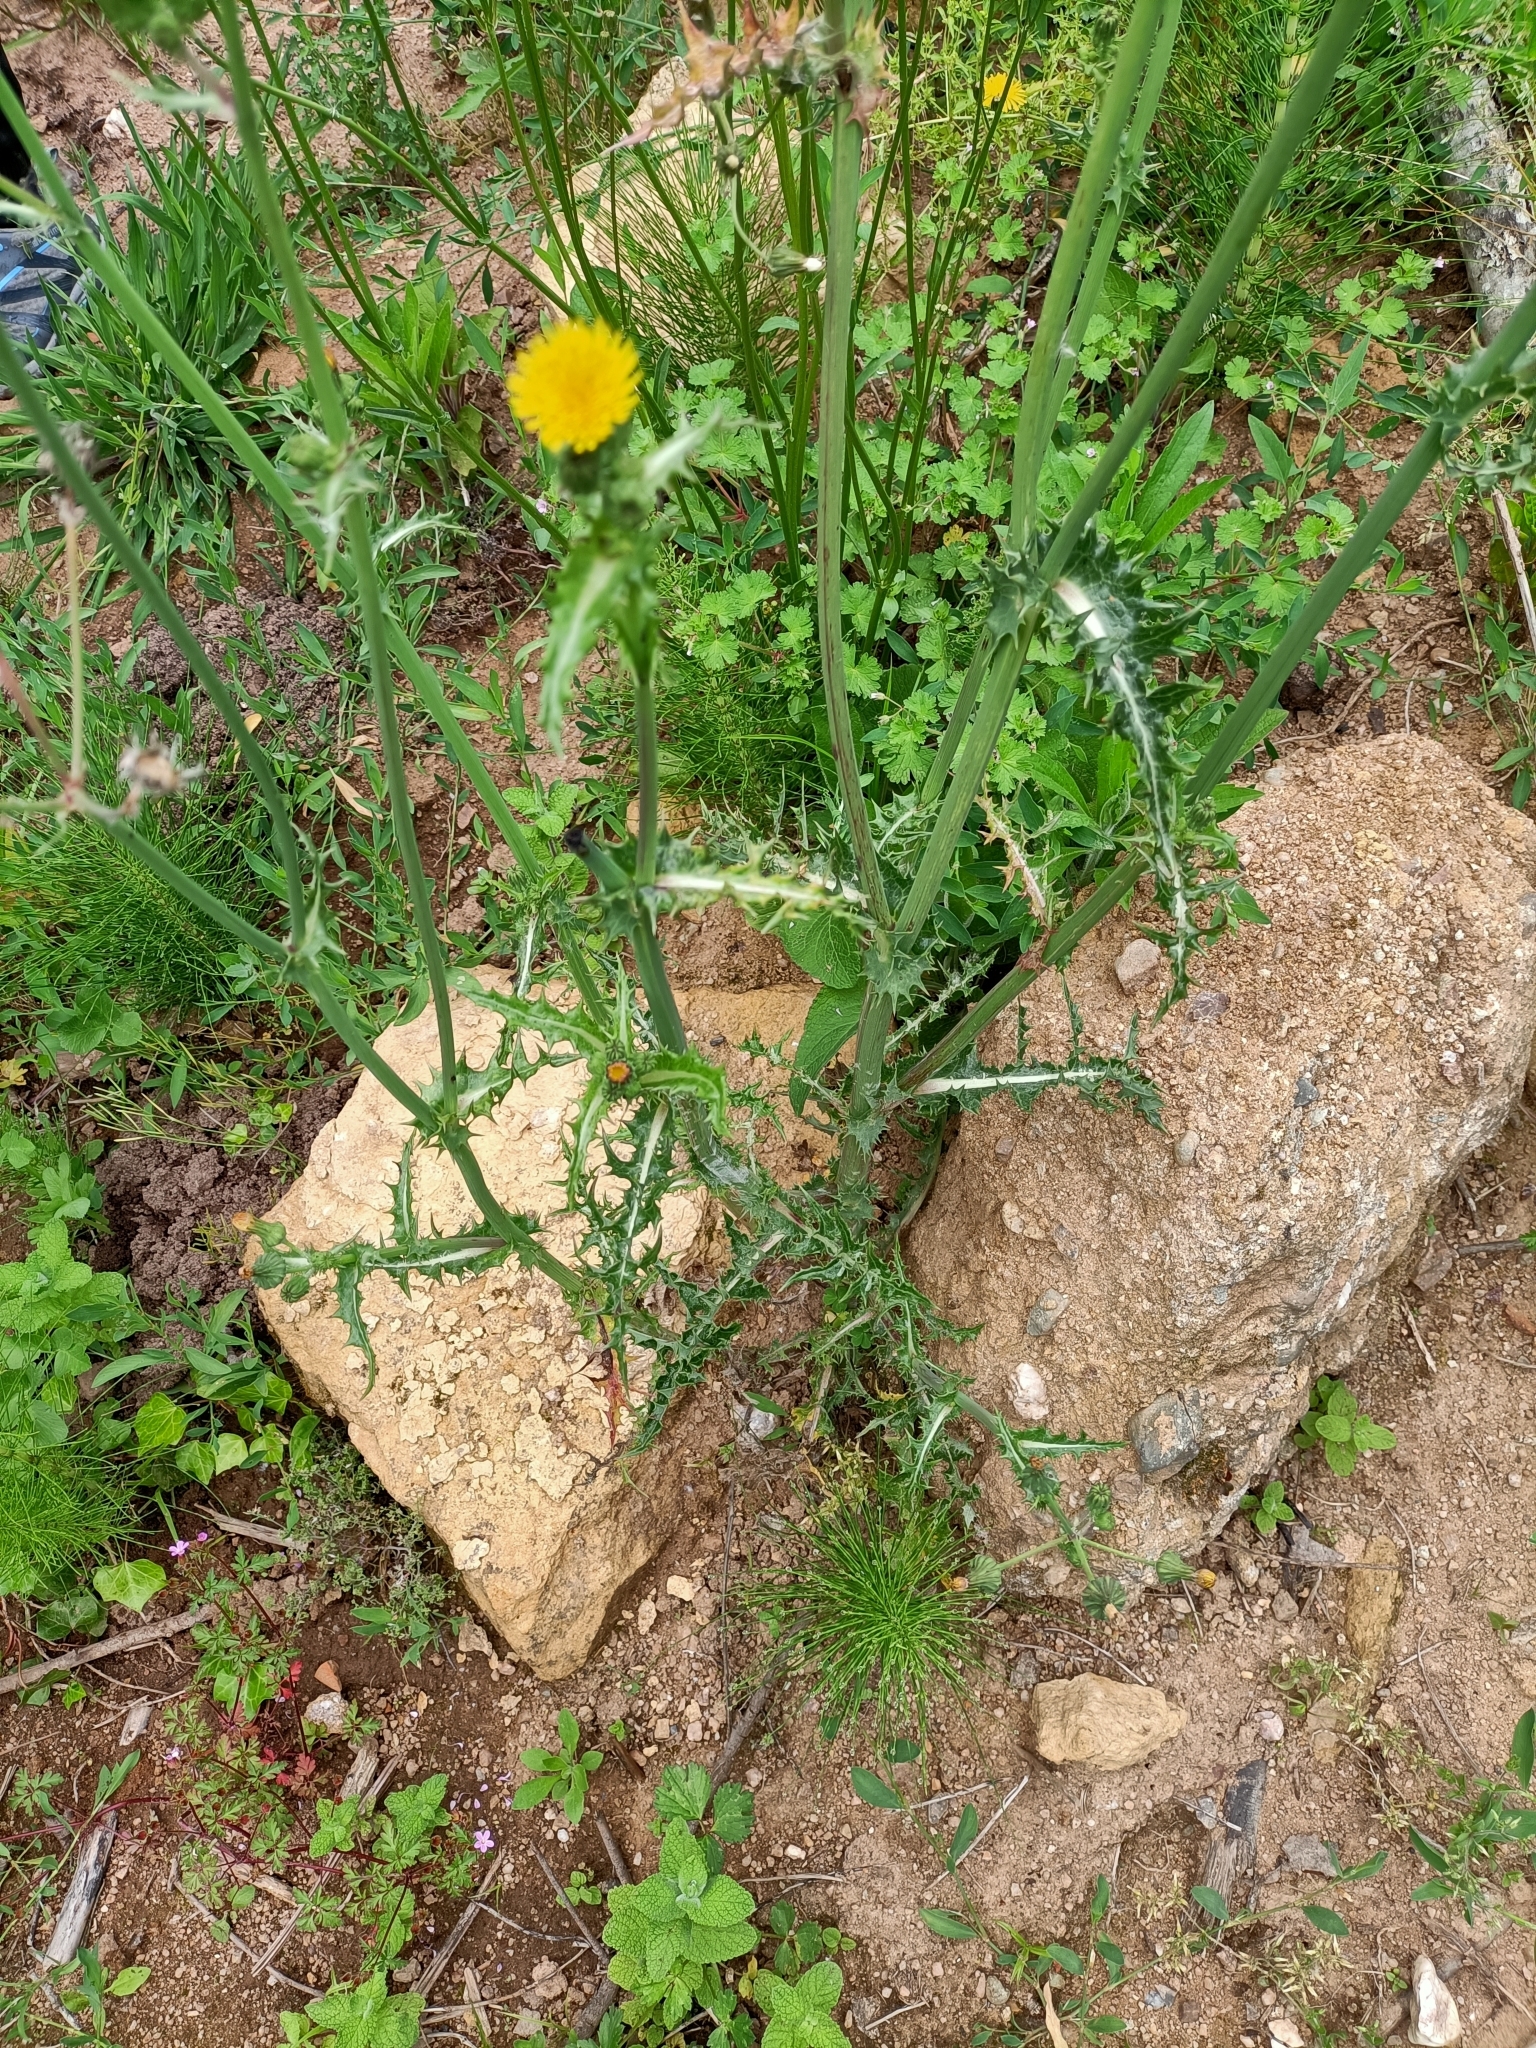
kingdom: Plantae
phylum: Tracheophyta
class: Magnoliopsida
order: Asterales
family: Asteraceae
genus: Sonchus
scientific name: Sonchus asper
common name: Prickly sow-thistle
